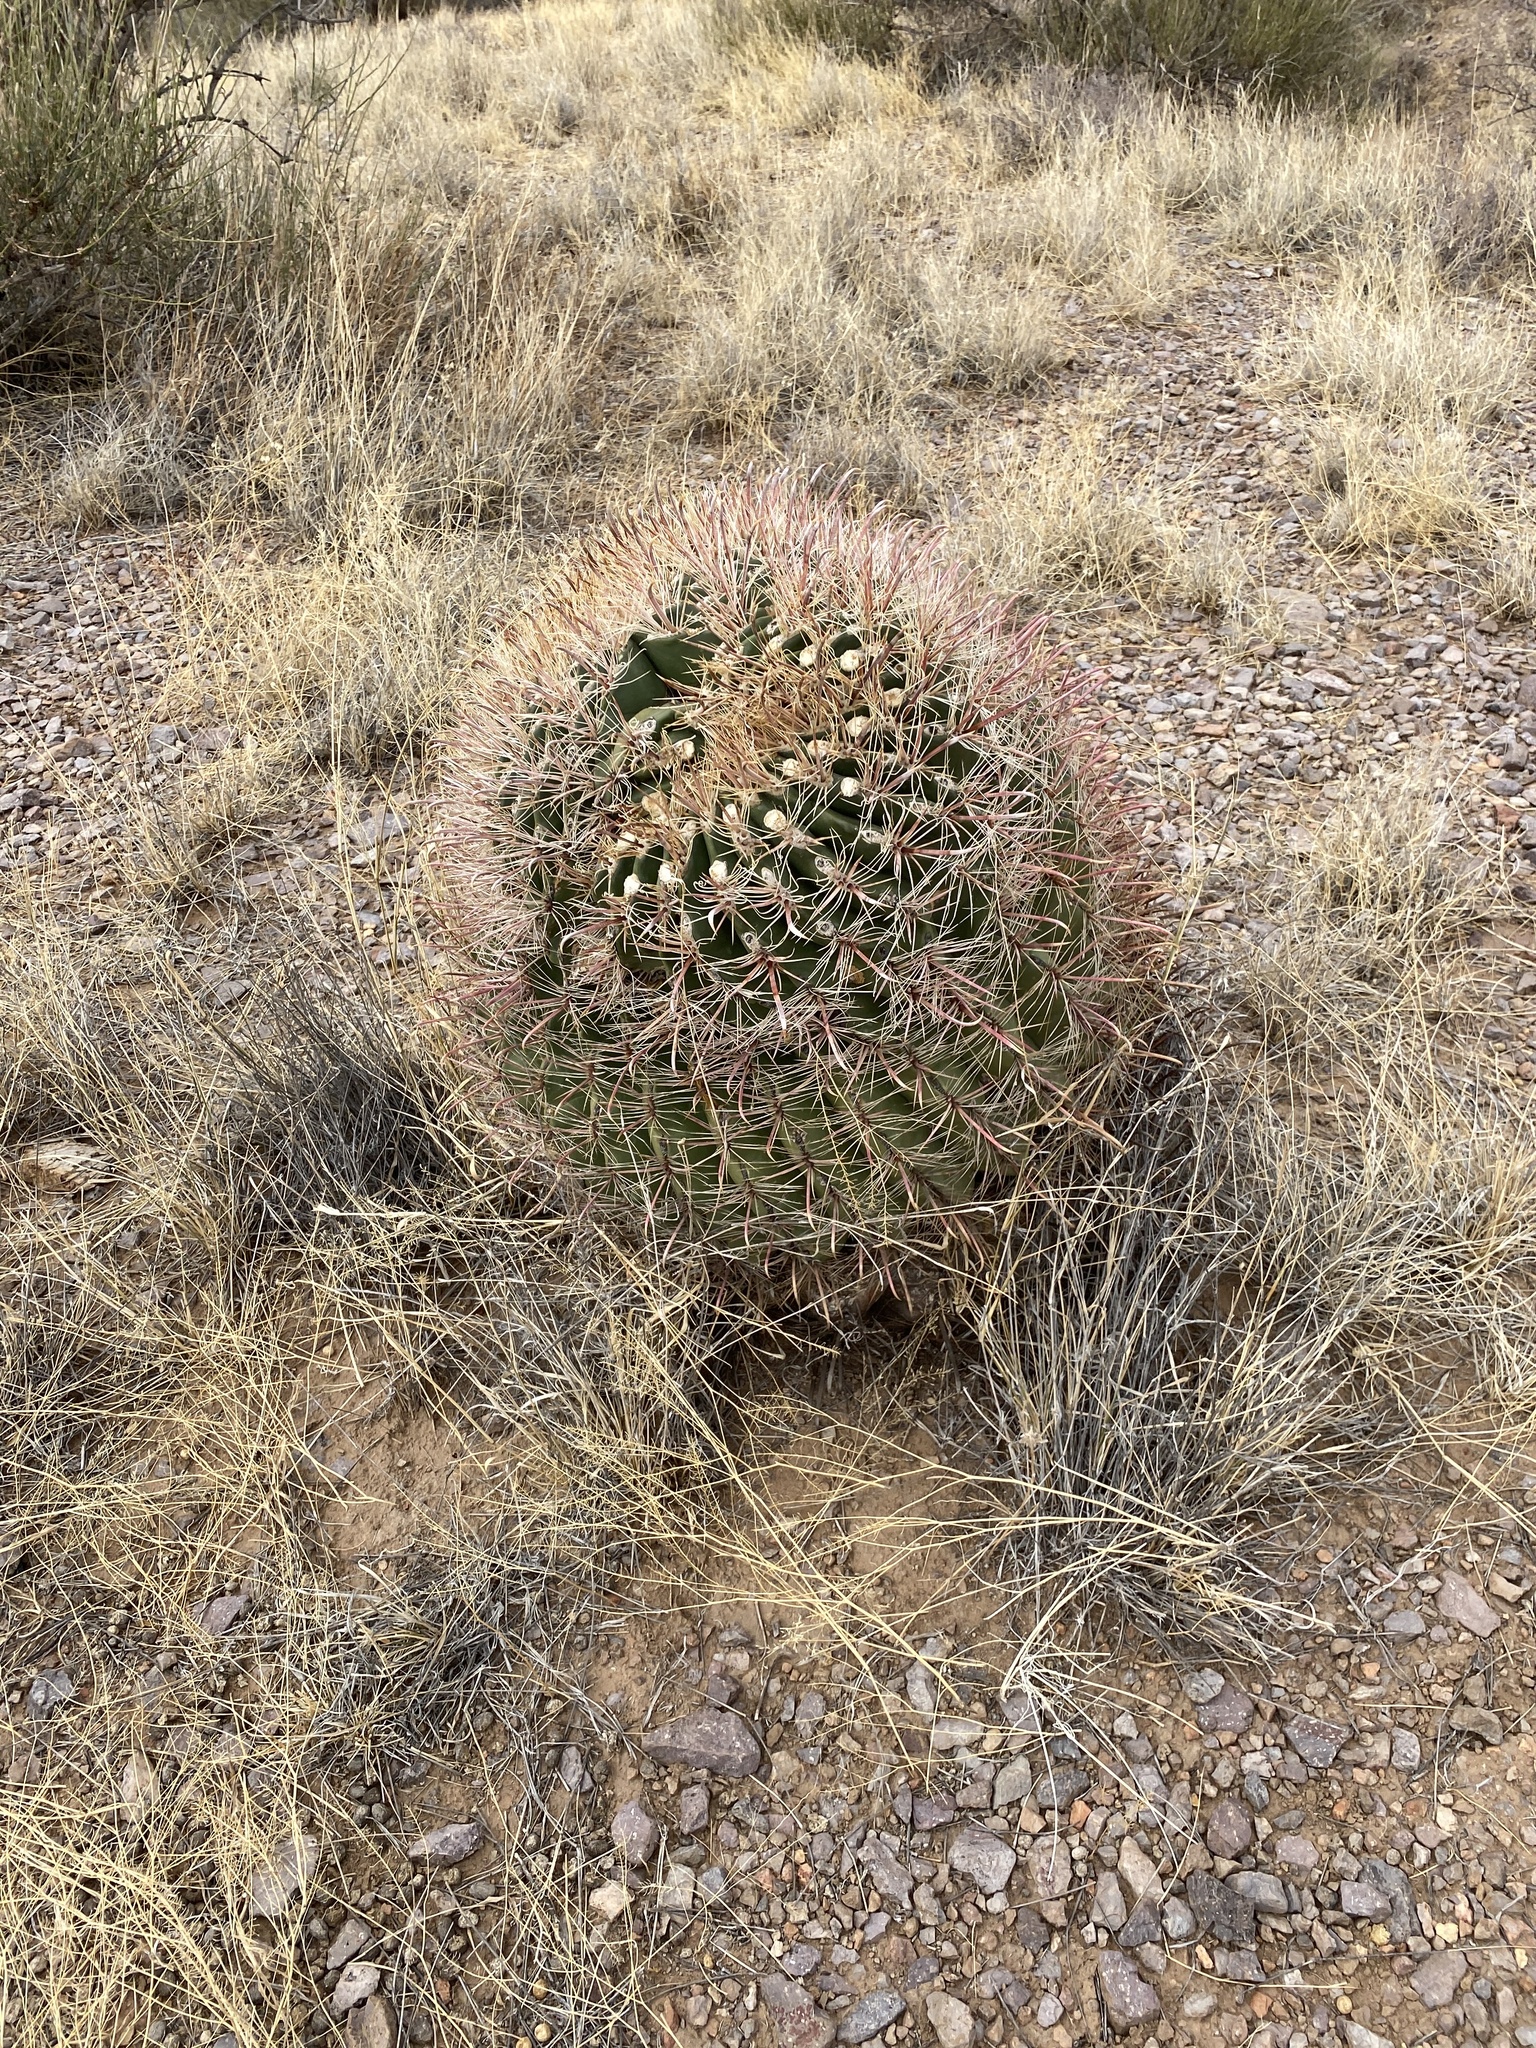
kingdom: Plantae
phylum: Tracheophyta
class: Magnoliopsida
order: Caryophyllales
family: Cactaceae
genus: Ferocactus
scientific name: Ferocactus wislizeni
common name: Candy barrel cactus
